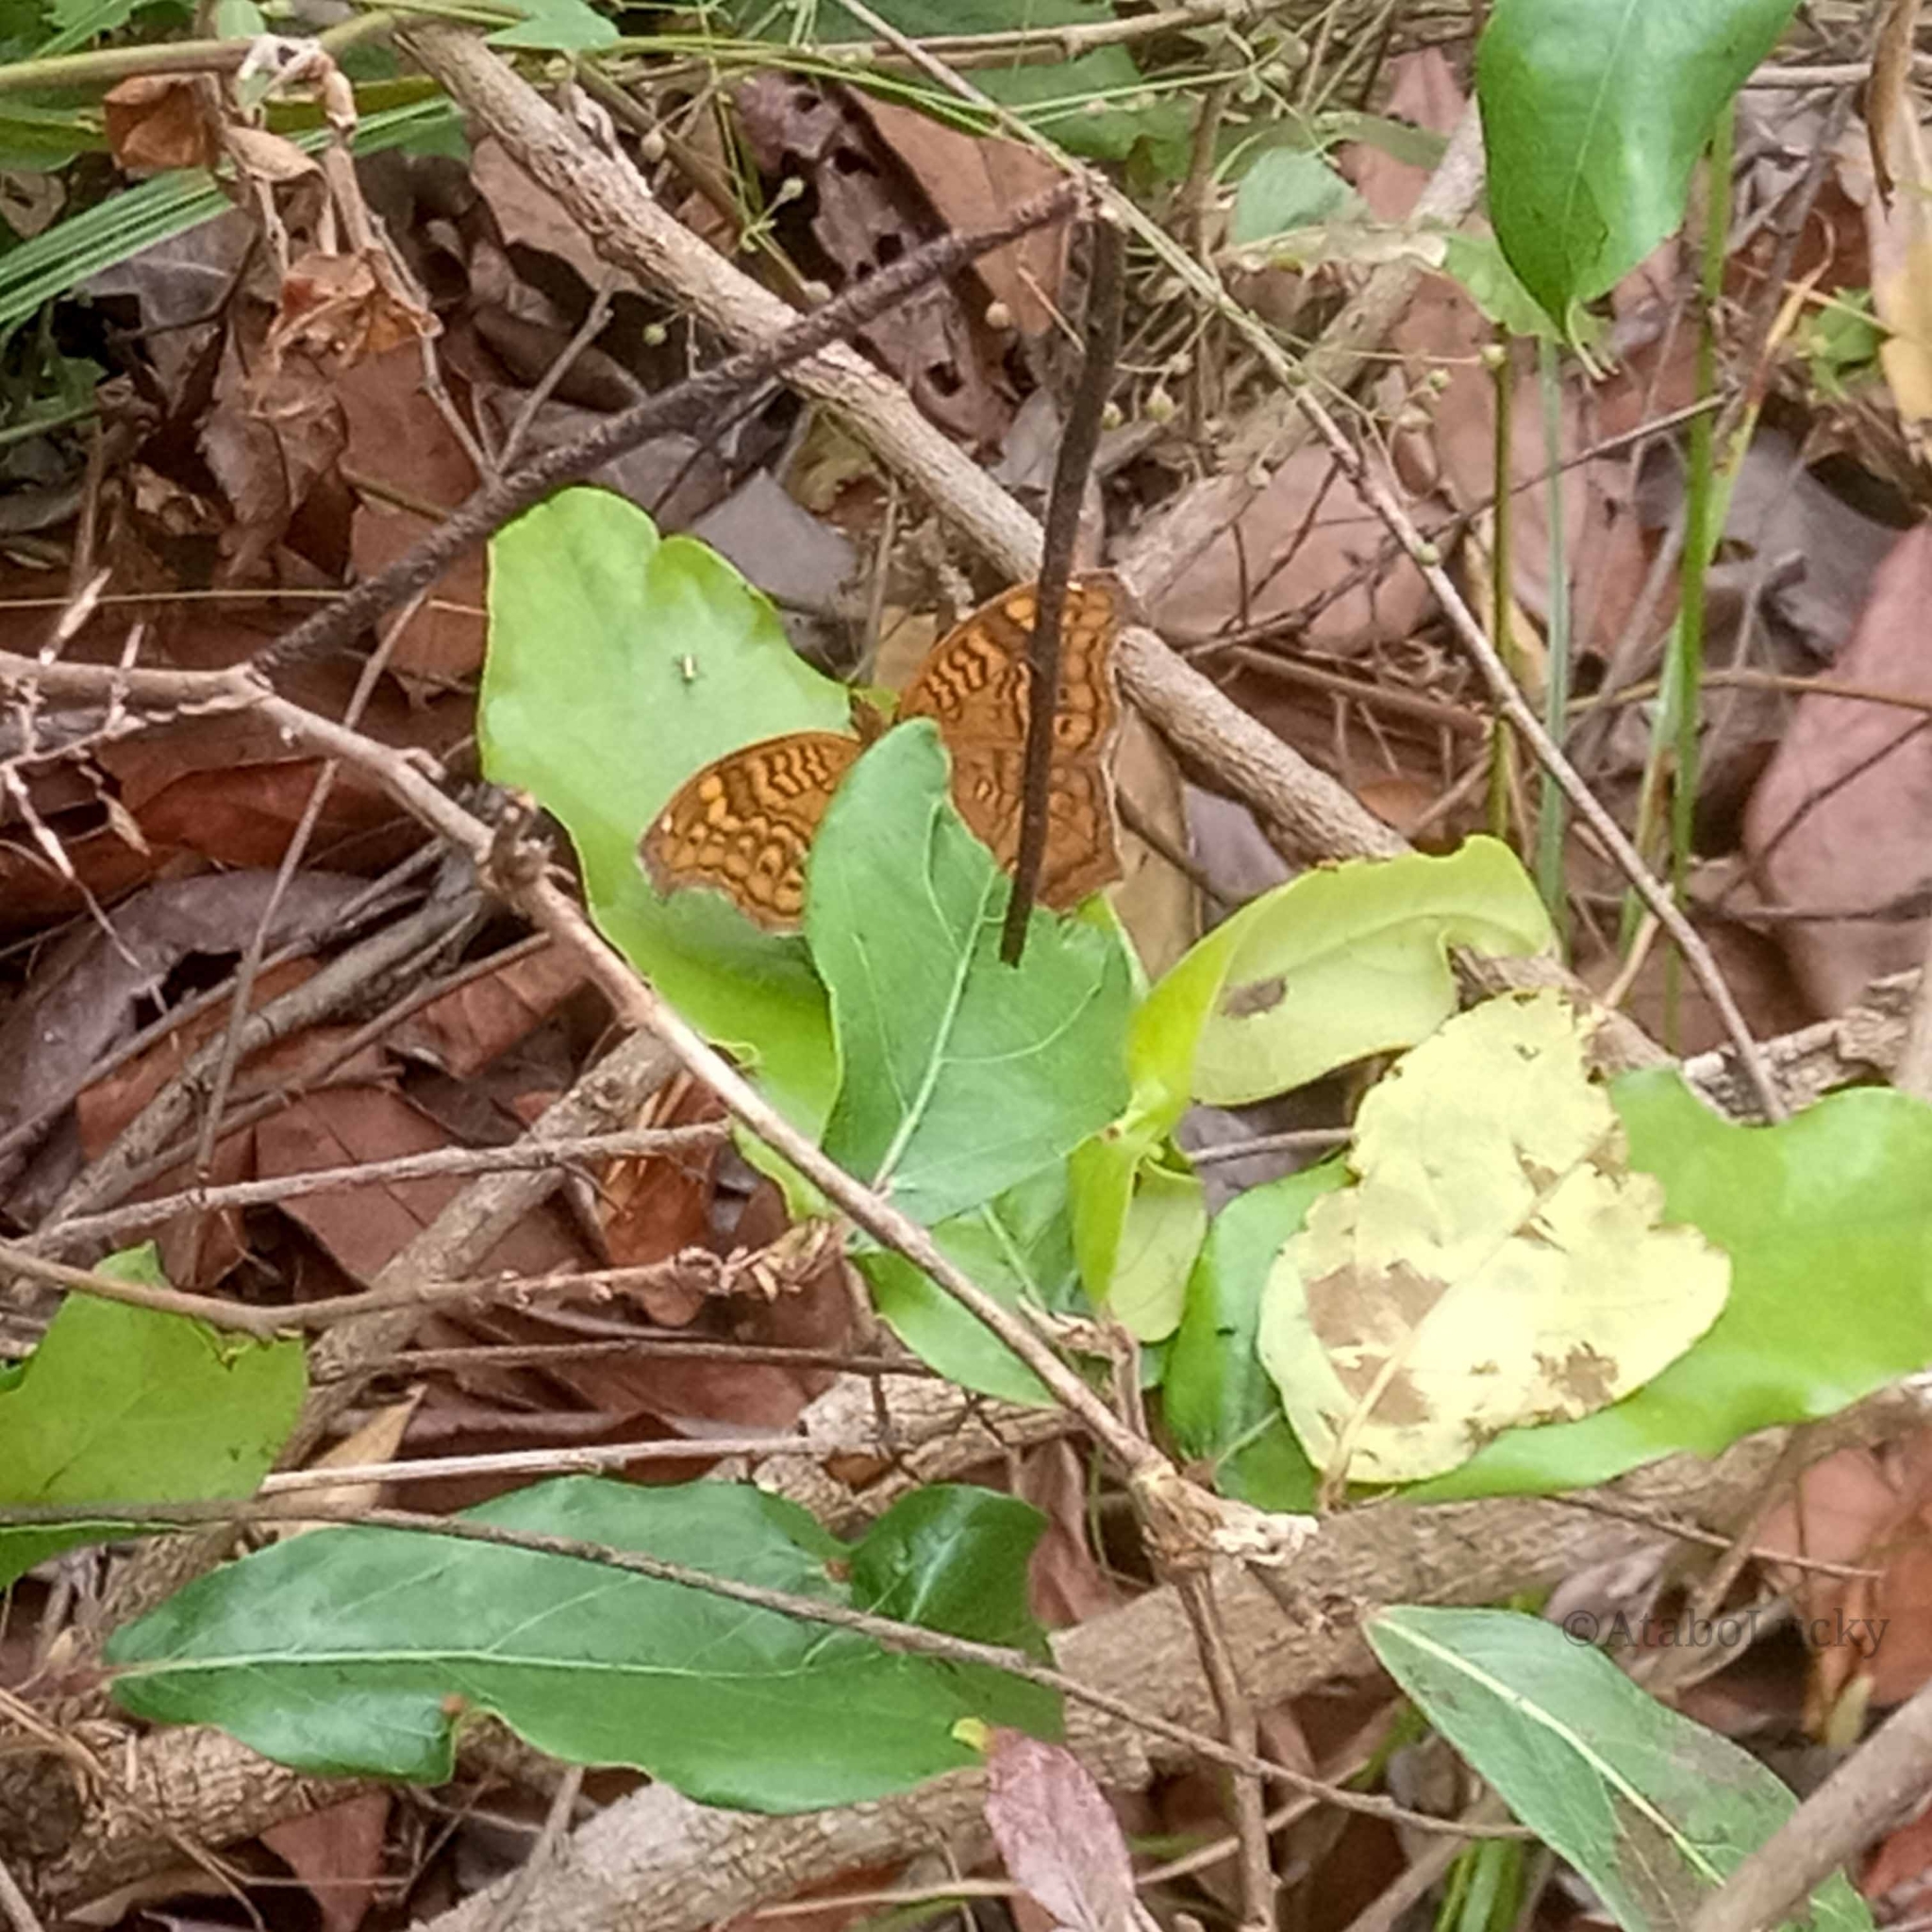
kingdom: Animalia
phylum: Arthropoda
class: Insecta
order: Lepidoptera
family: Nymphalidae
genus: Junonia
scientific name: Junonia chorimene
